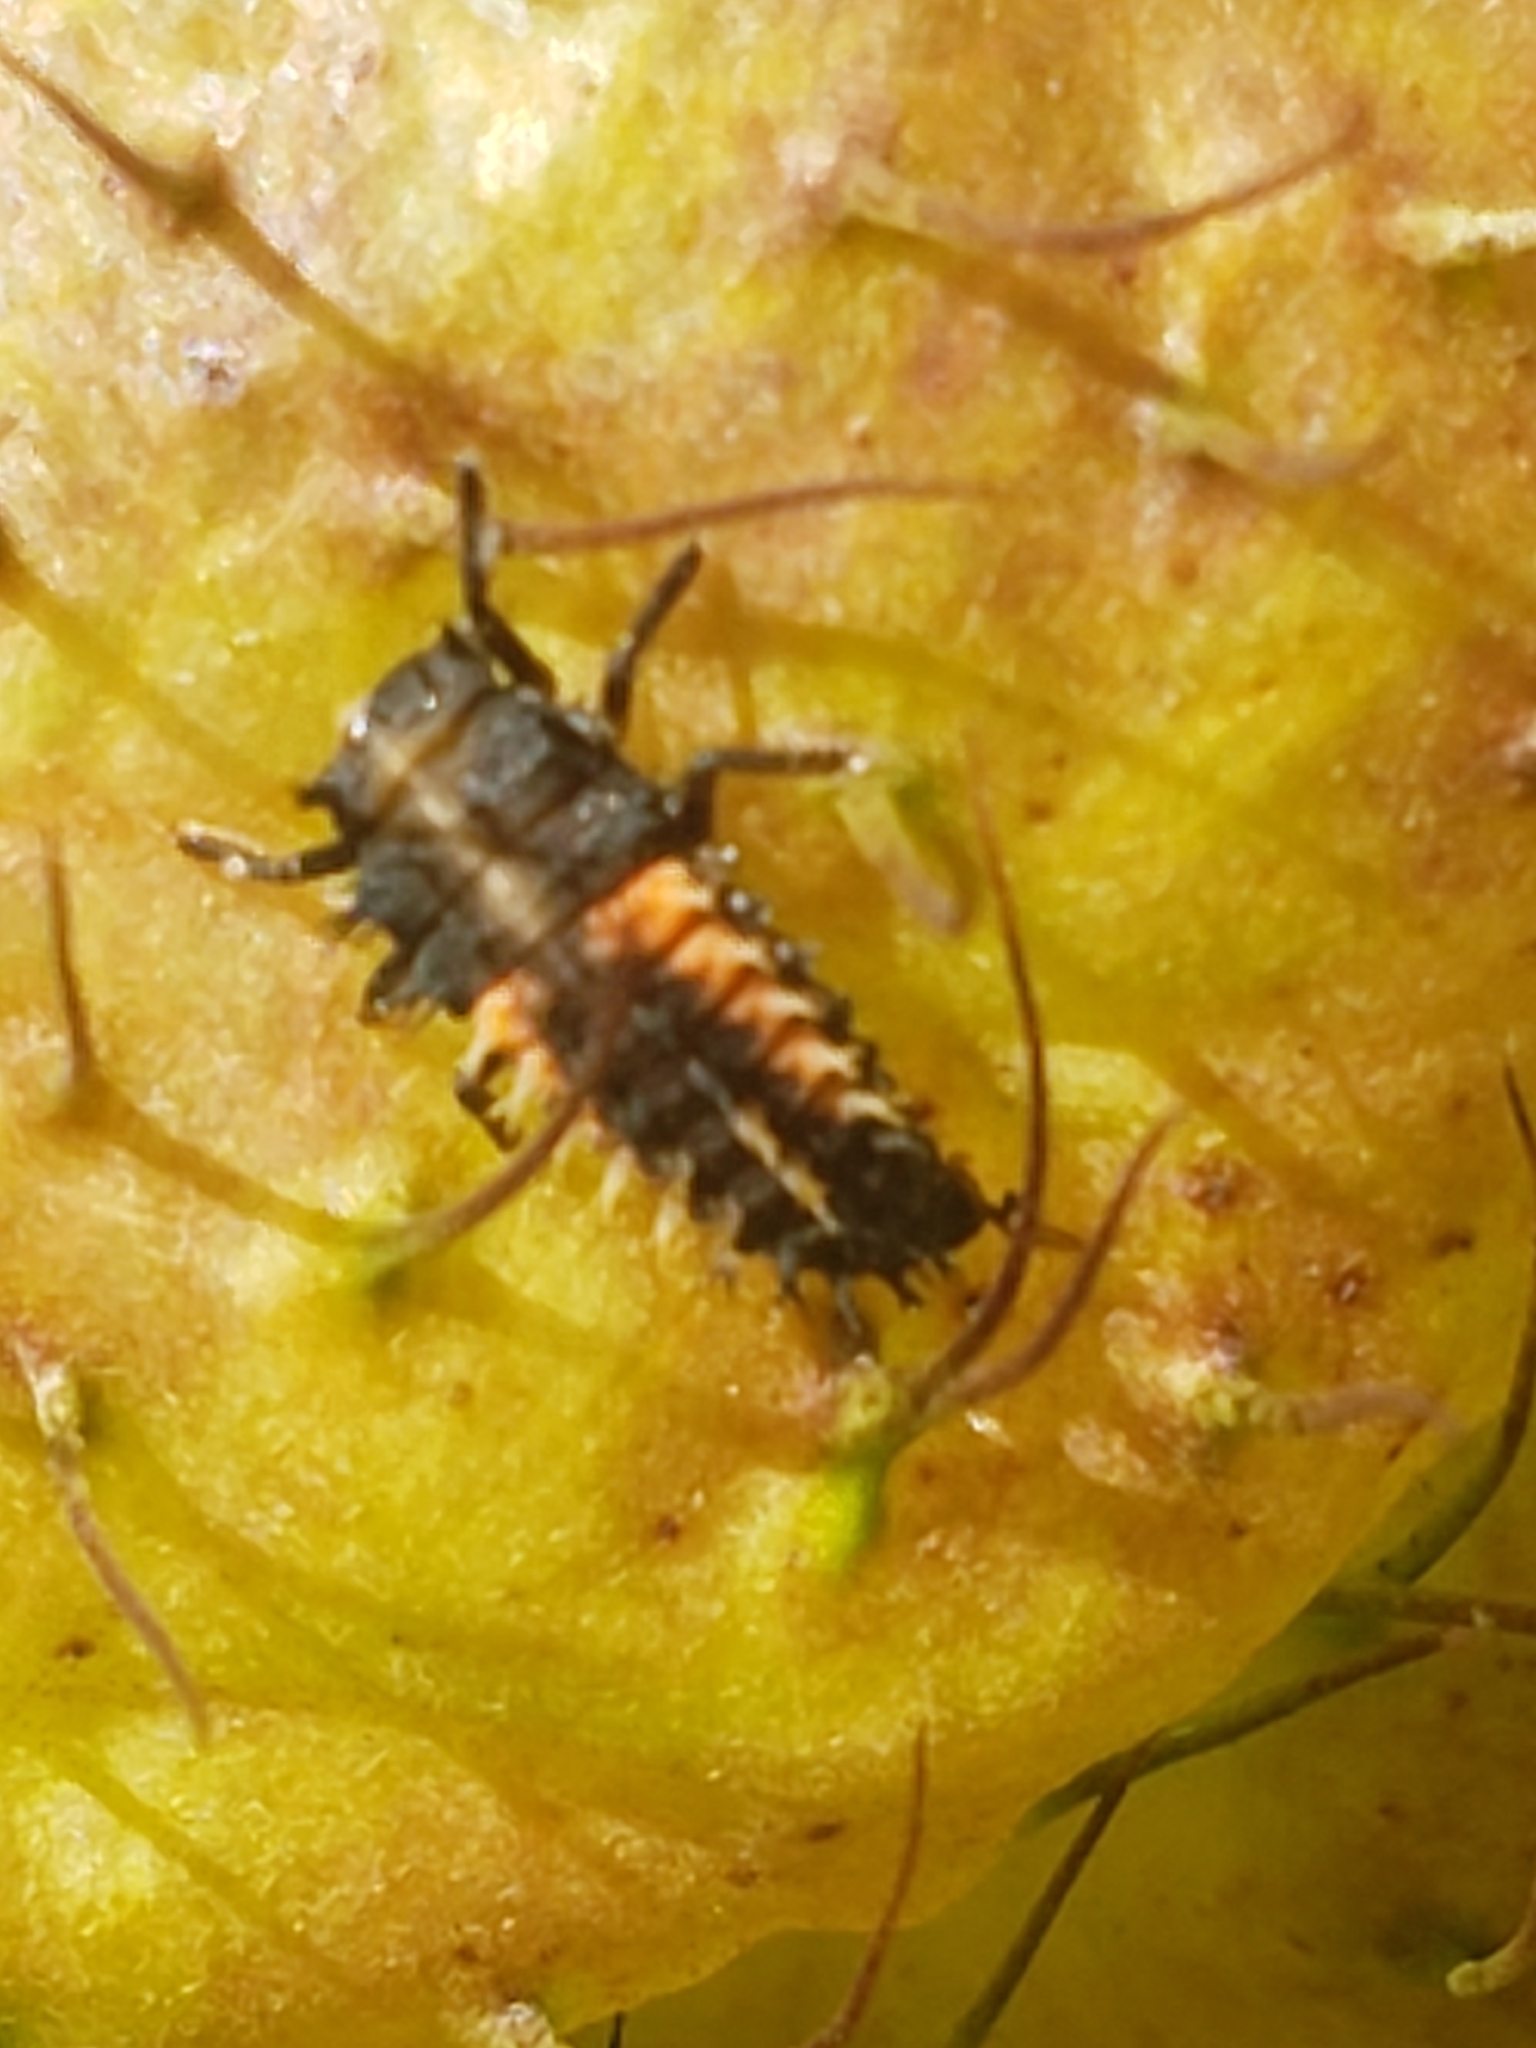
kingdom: Animalia
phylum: Arthropoda
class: Insecta
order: Coleoptera
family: Coccinellidae
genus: Harmonia
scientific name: Harmonia axyridis
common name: Harlequin ladybird
